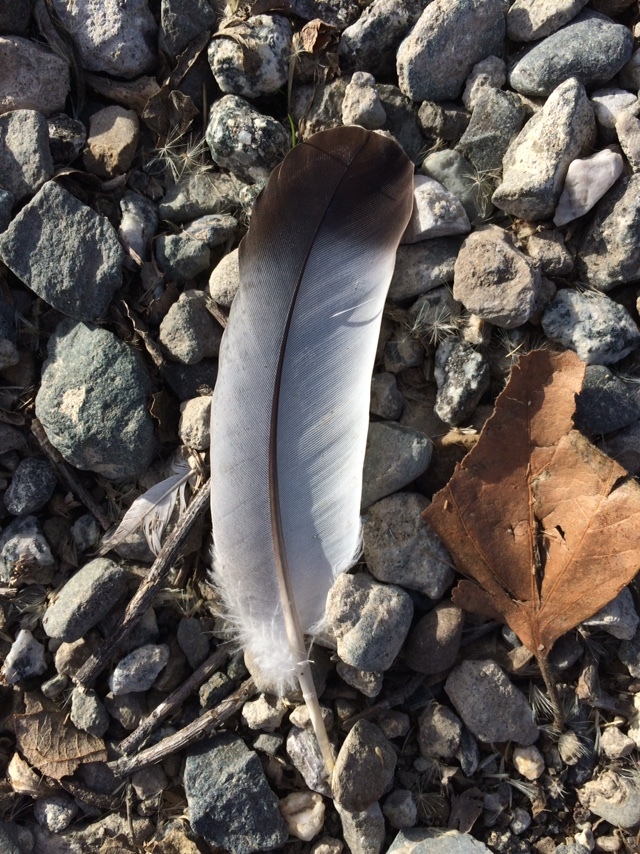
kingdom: Animalia
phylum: Chordata
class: Aves
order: Columbiformes
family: Columbidae
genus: Columba
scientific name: Columba livia
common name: Rock pigeon
